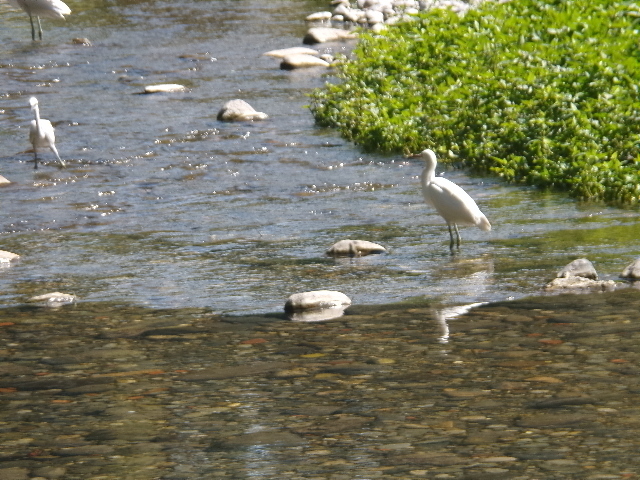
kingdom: Animalia
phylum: Chordata
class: Aves
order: Pelecaniformes
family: Ardeidae
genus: Egretta
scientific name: Egretta thula
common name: Snowy egret
